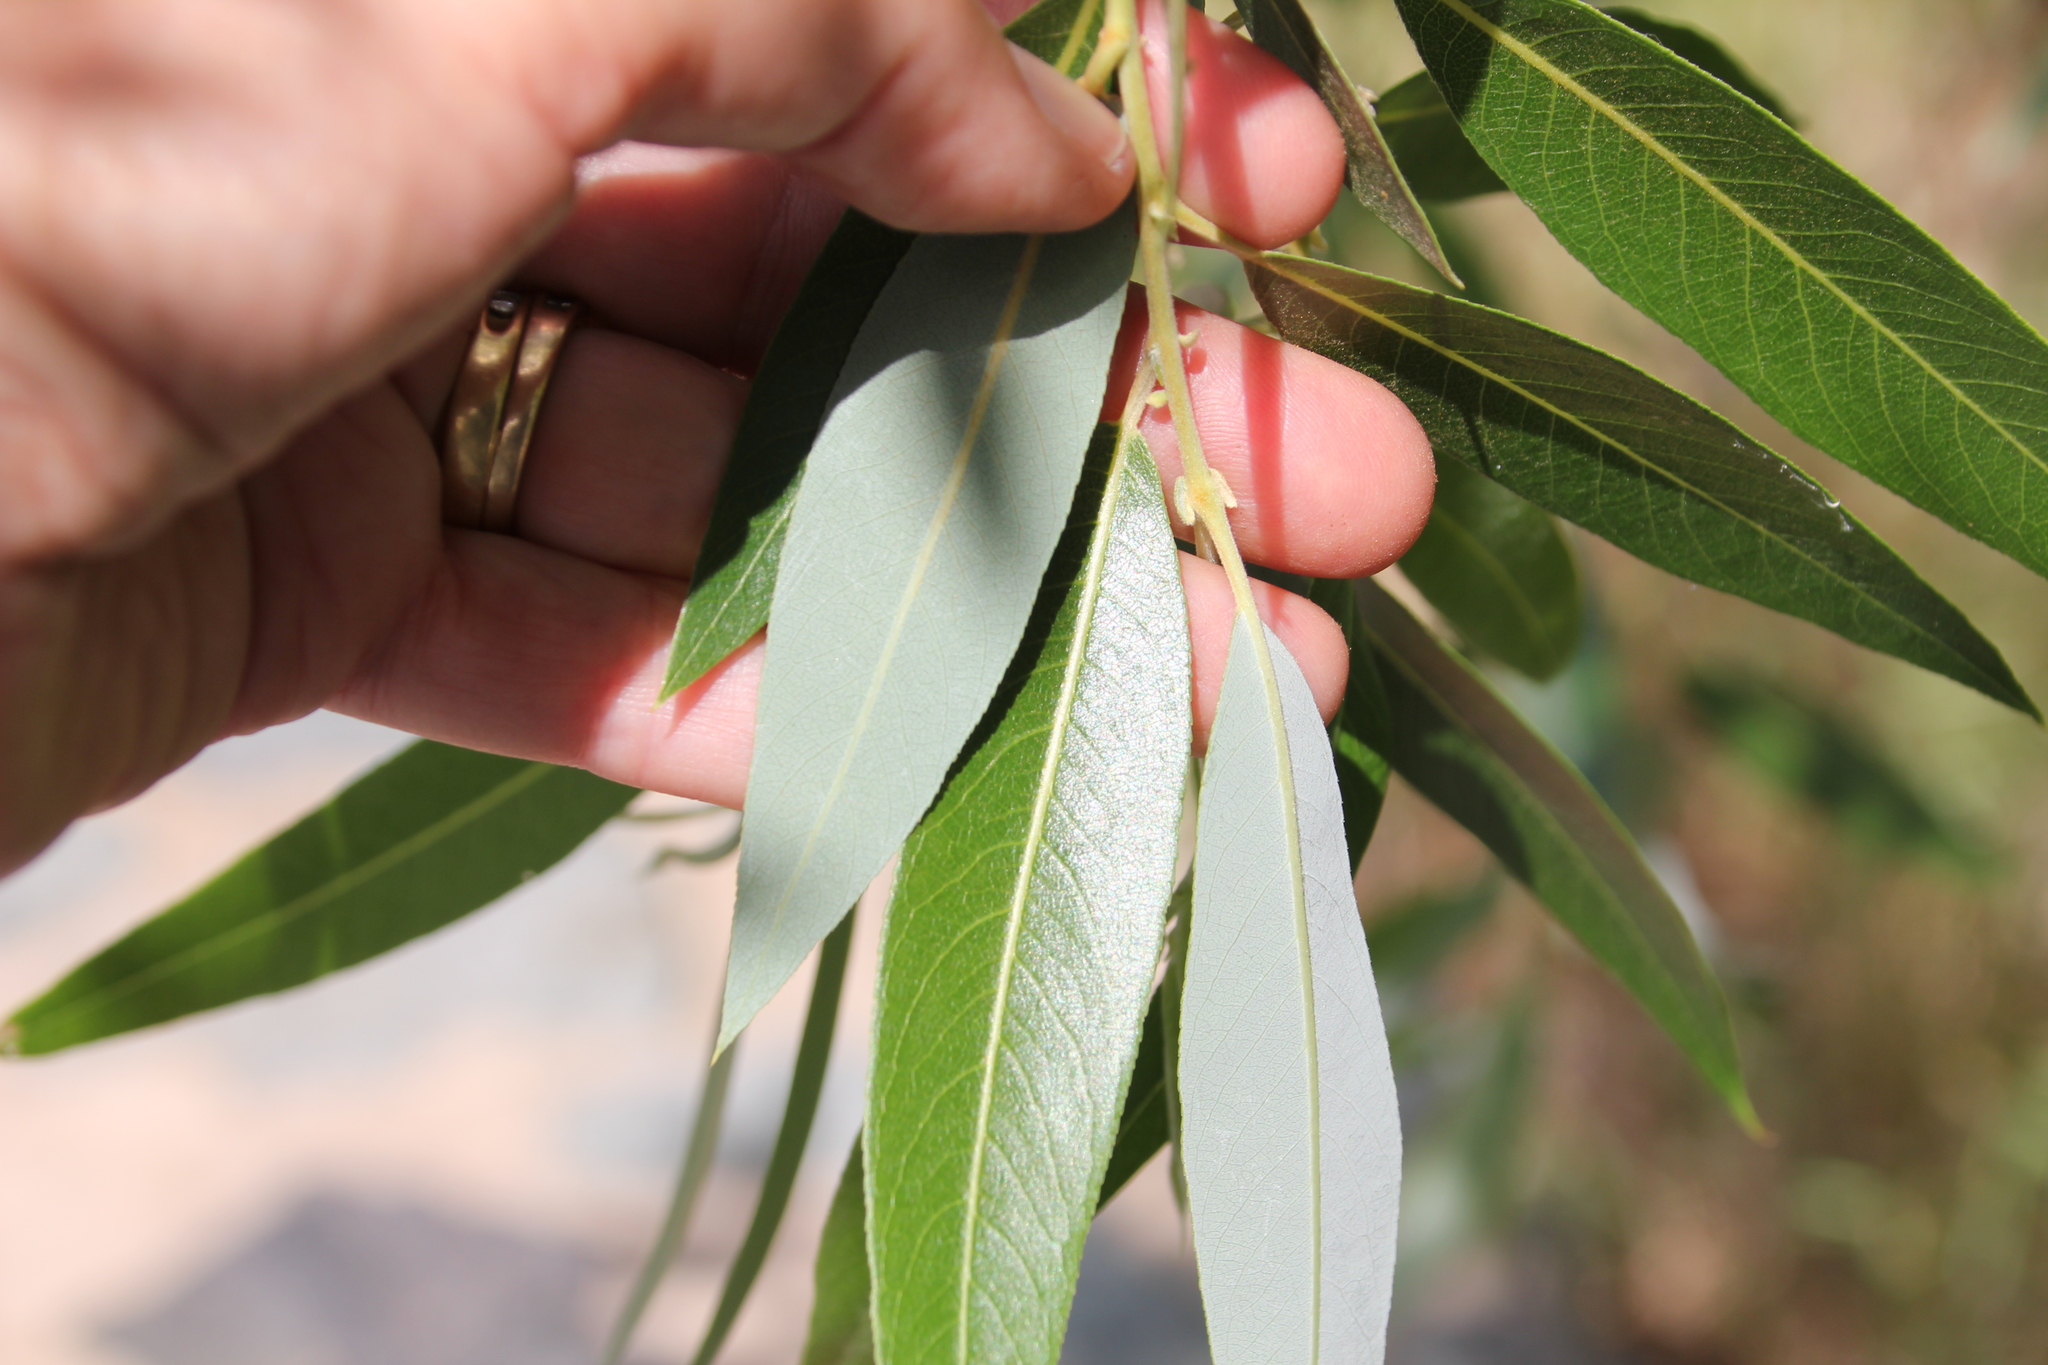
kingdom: Plantae
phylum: Tracheophyta
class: Magnoliopsida
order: Malpighiales
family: Salicaceae
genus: Salix
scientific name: Salix laevigata
